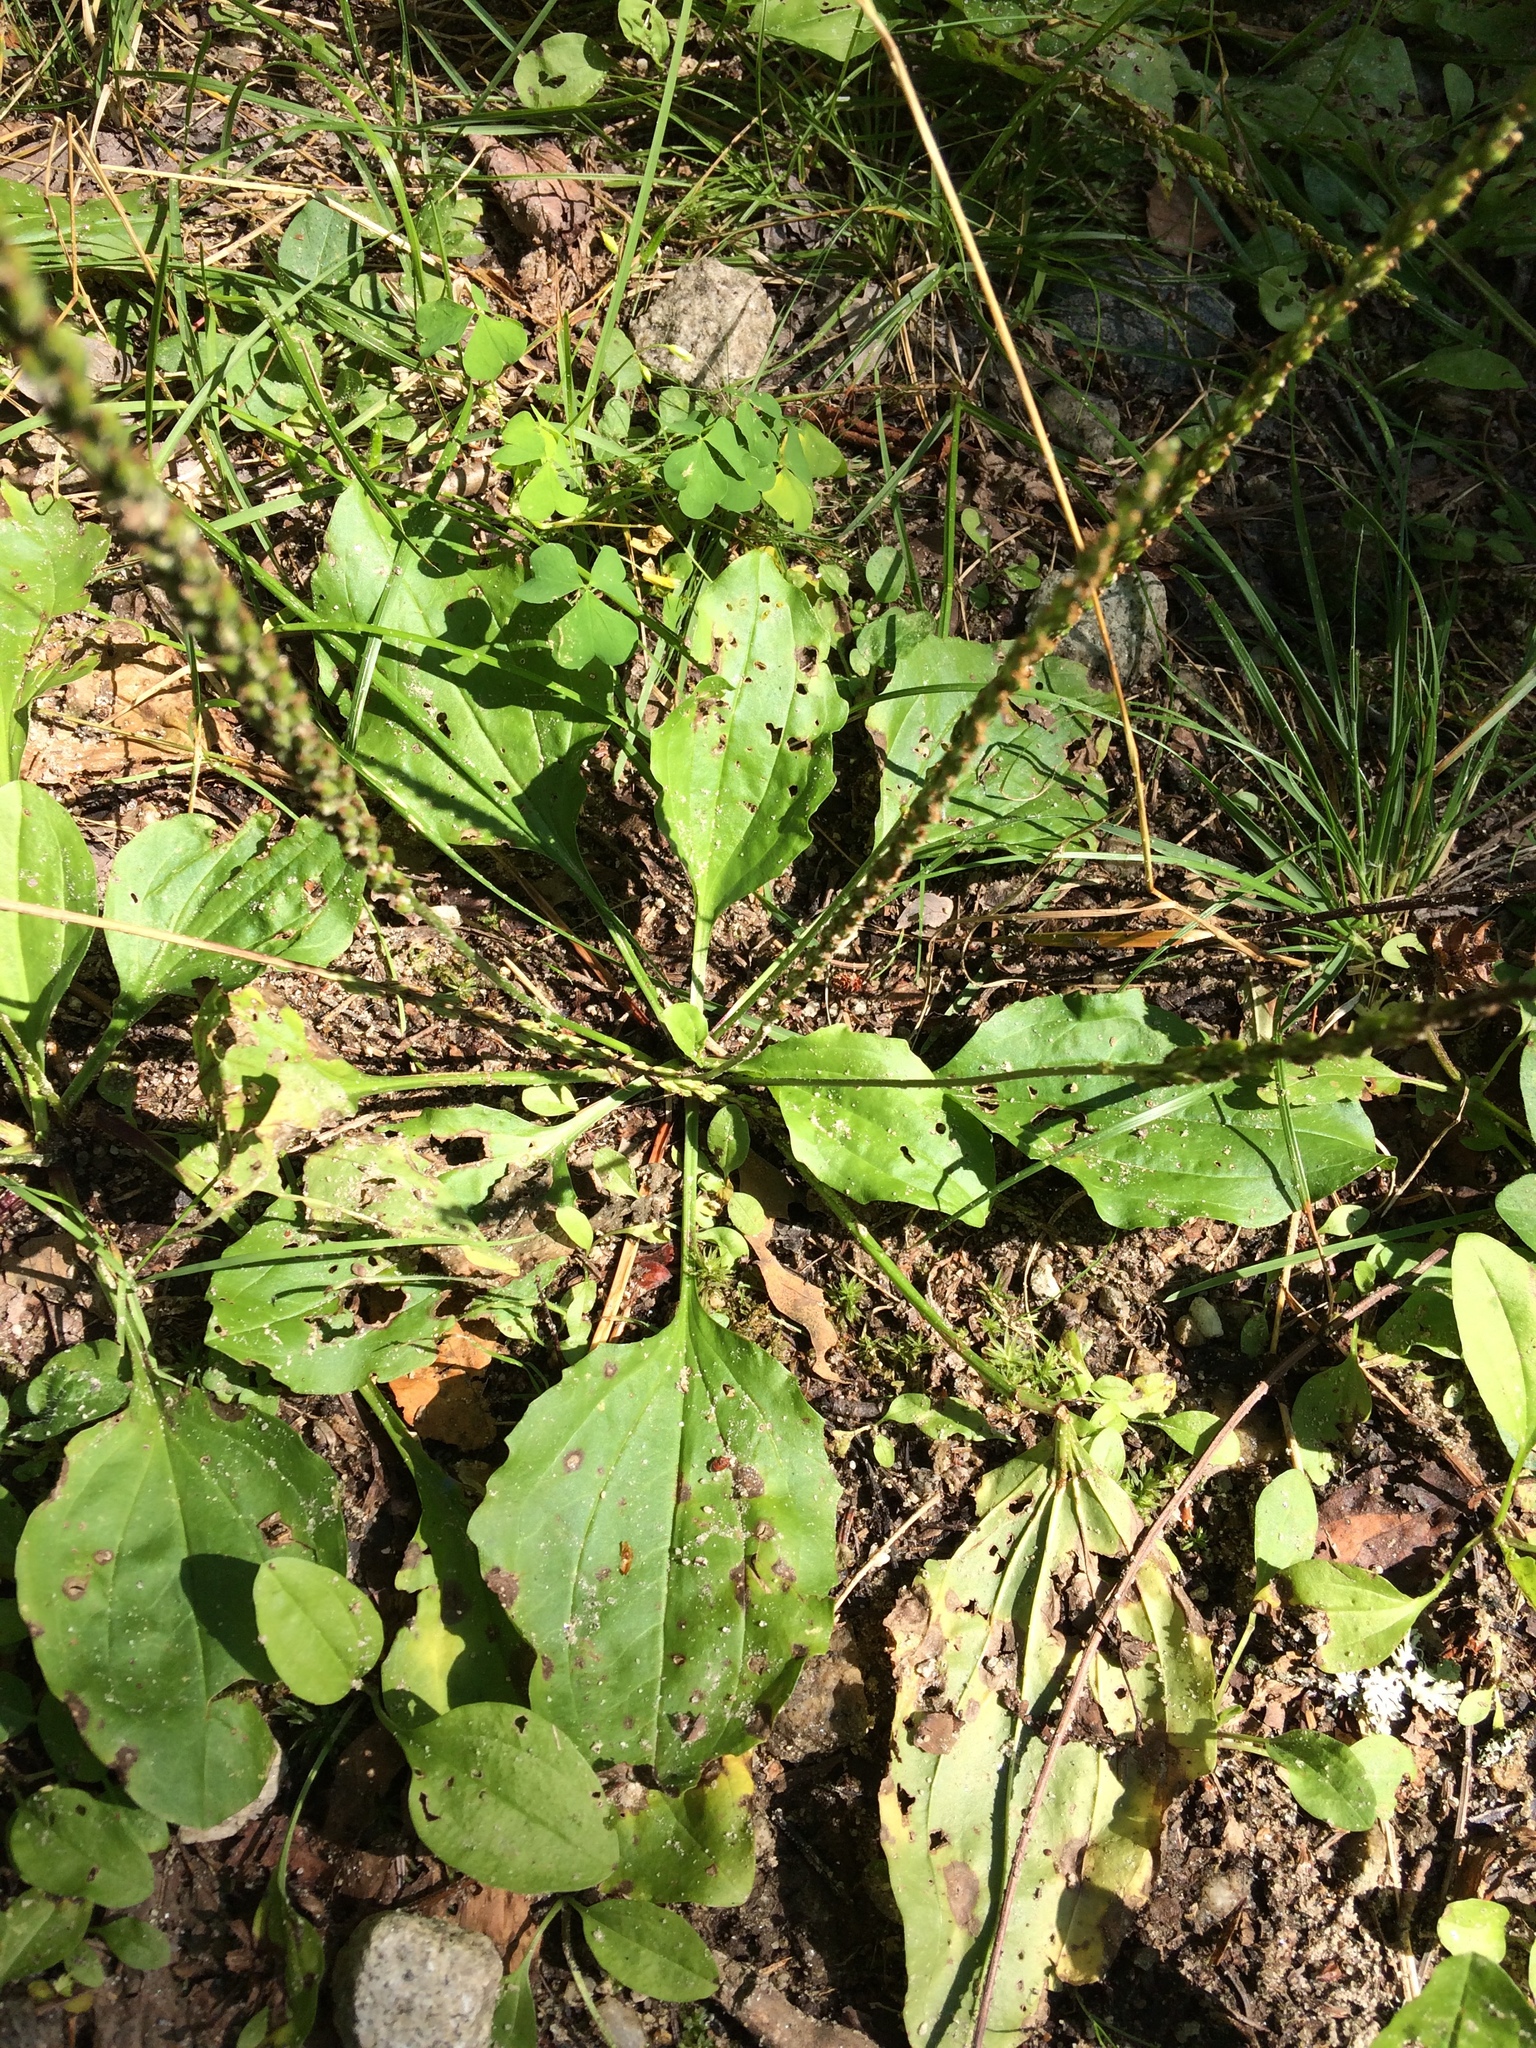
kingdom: Plantae
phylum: Tracheophyta
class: Magnoliopsida
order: Lamiales
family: Plantaginaceae
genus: Plantago
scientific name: Plantago major
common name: Common plantain
